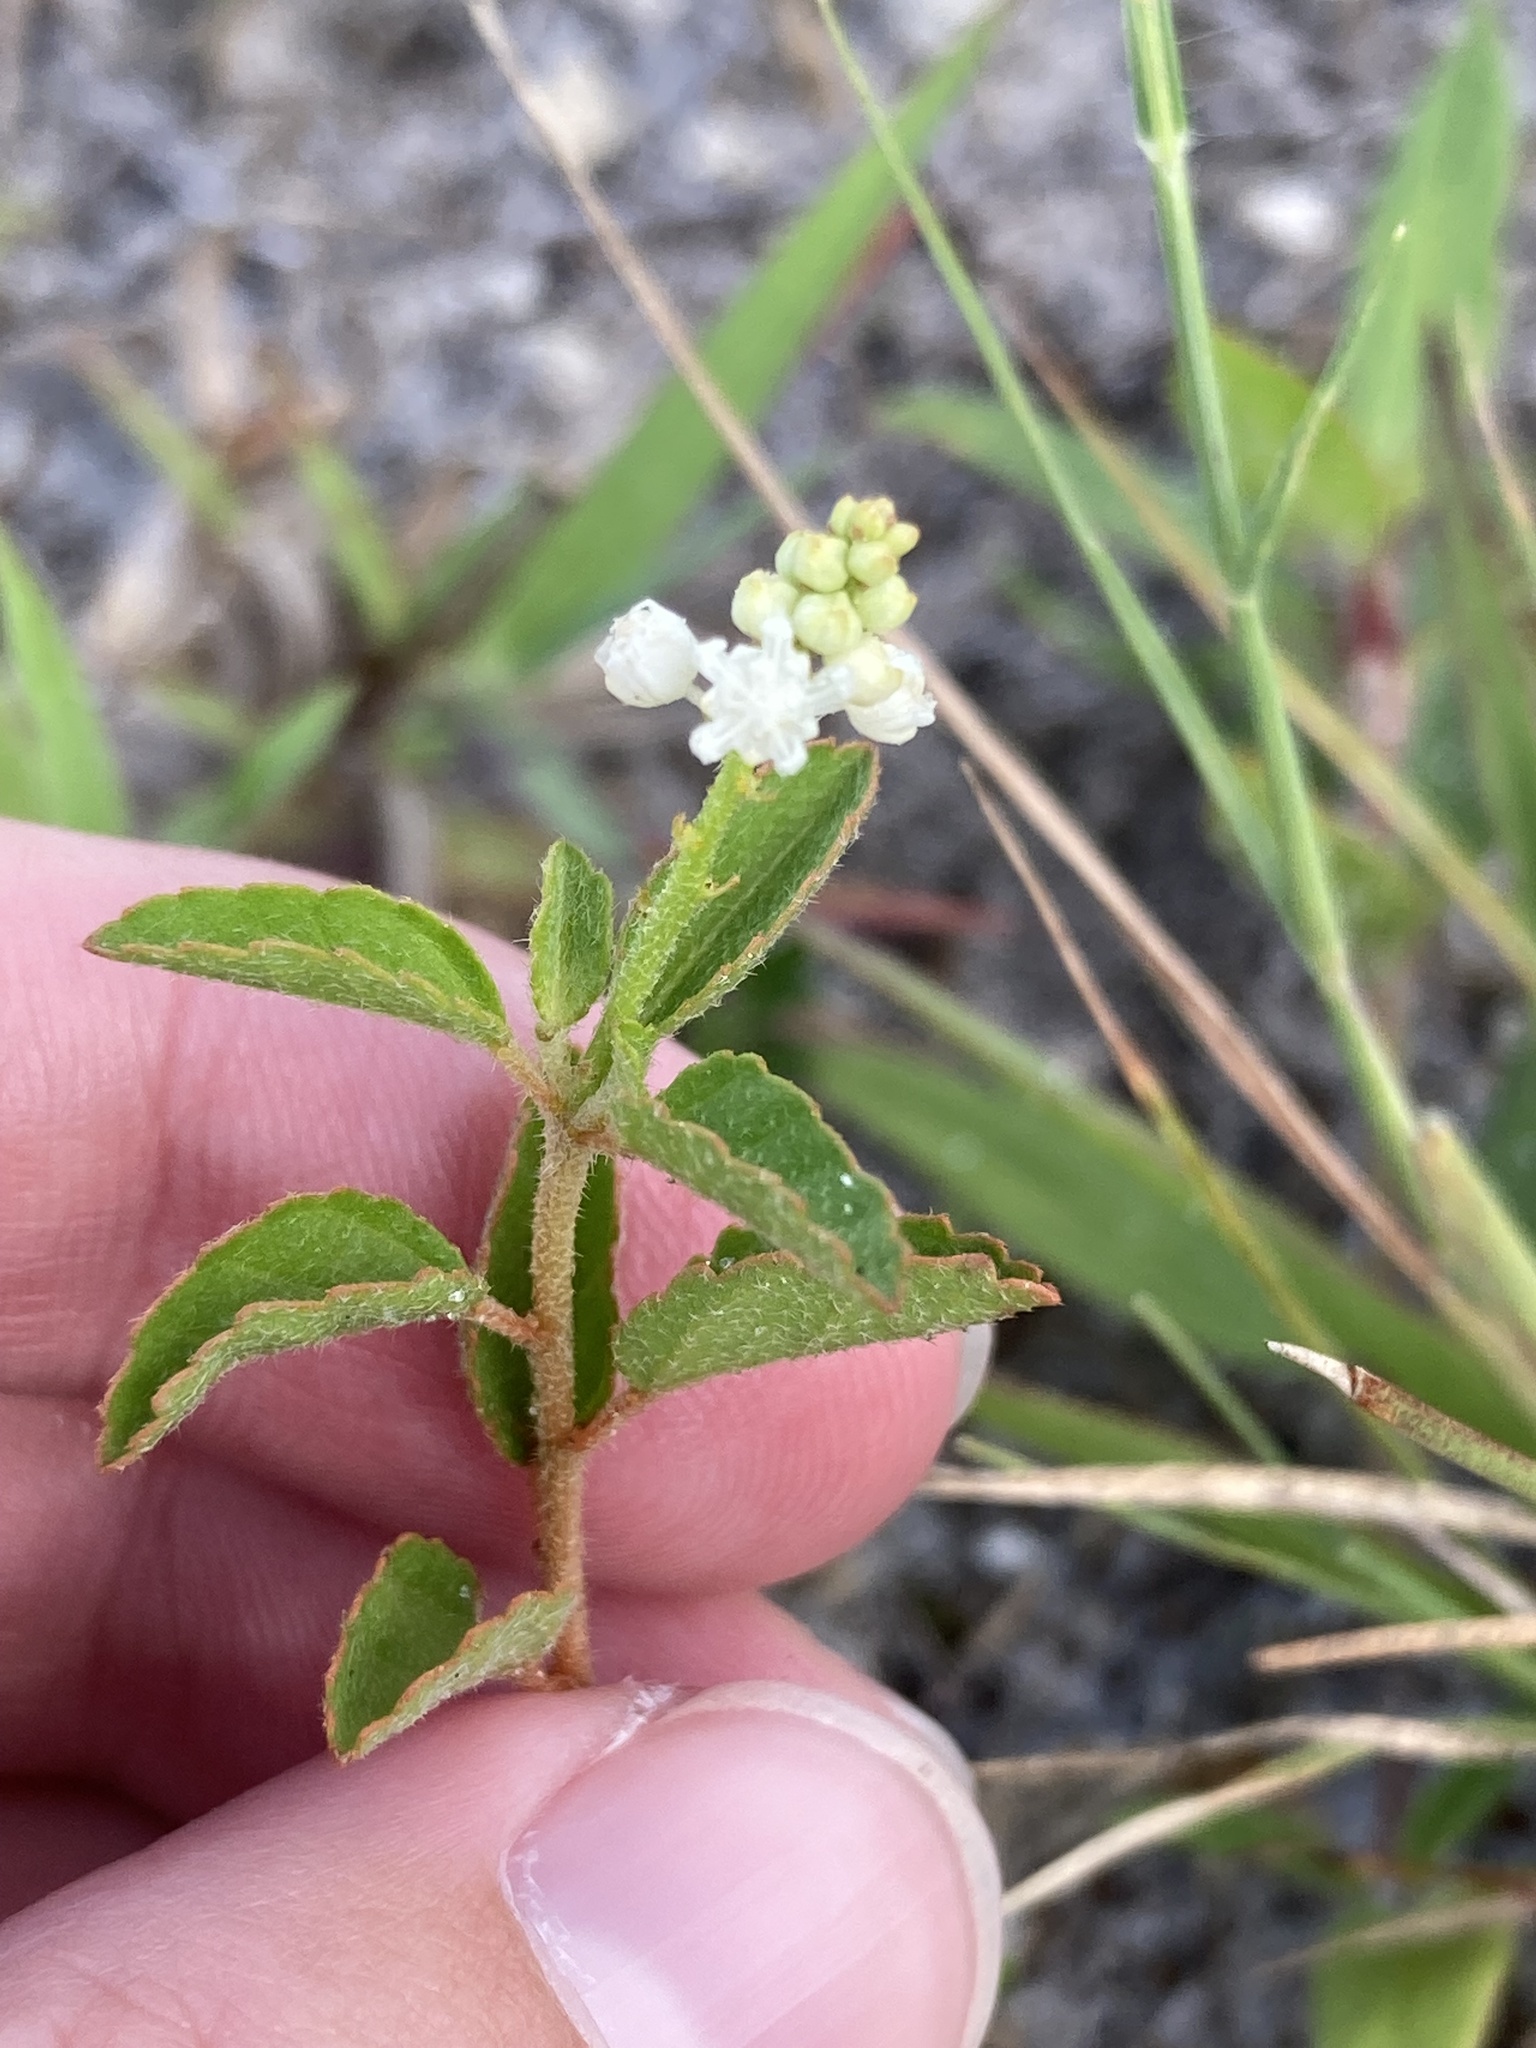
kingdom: Plantae
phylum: Tracheophyta
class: Magnoliopsida
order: Malpighiales
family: Euphorbiaceae
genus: Croton
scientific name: Croton glandulosus
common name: Tropic croton
